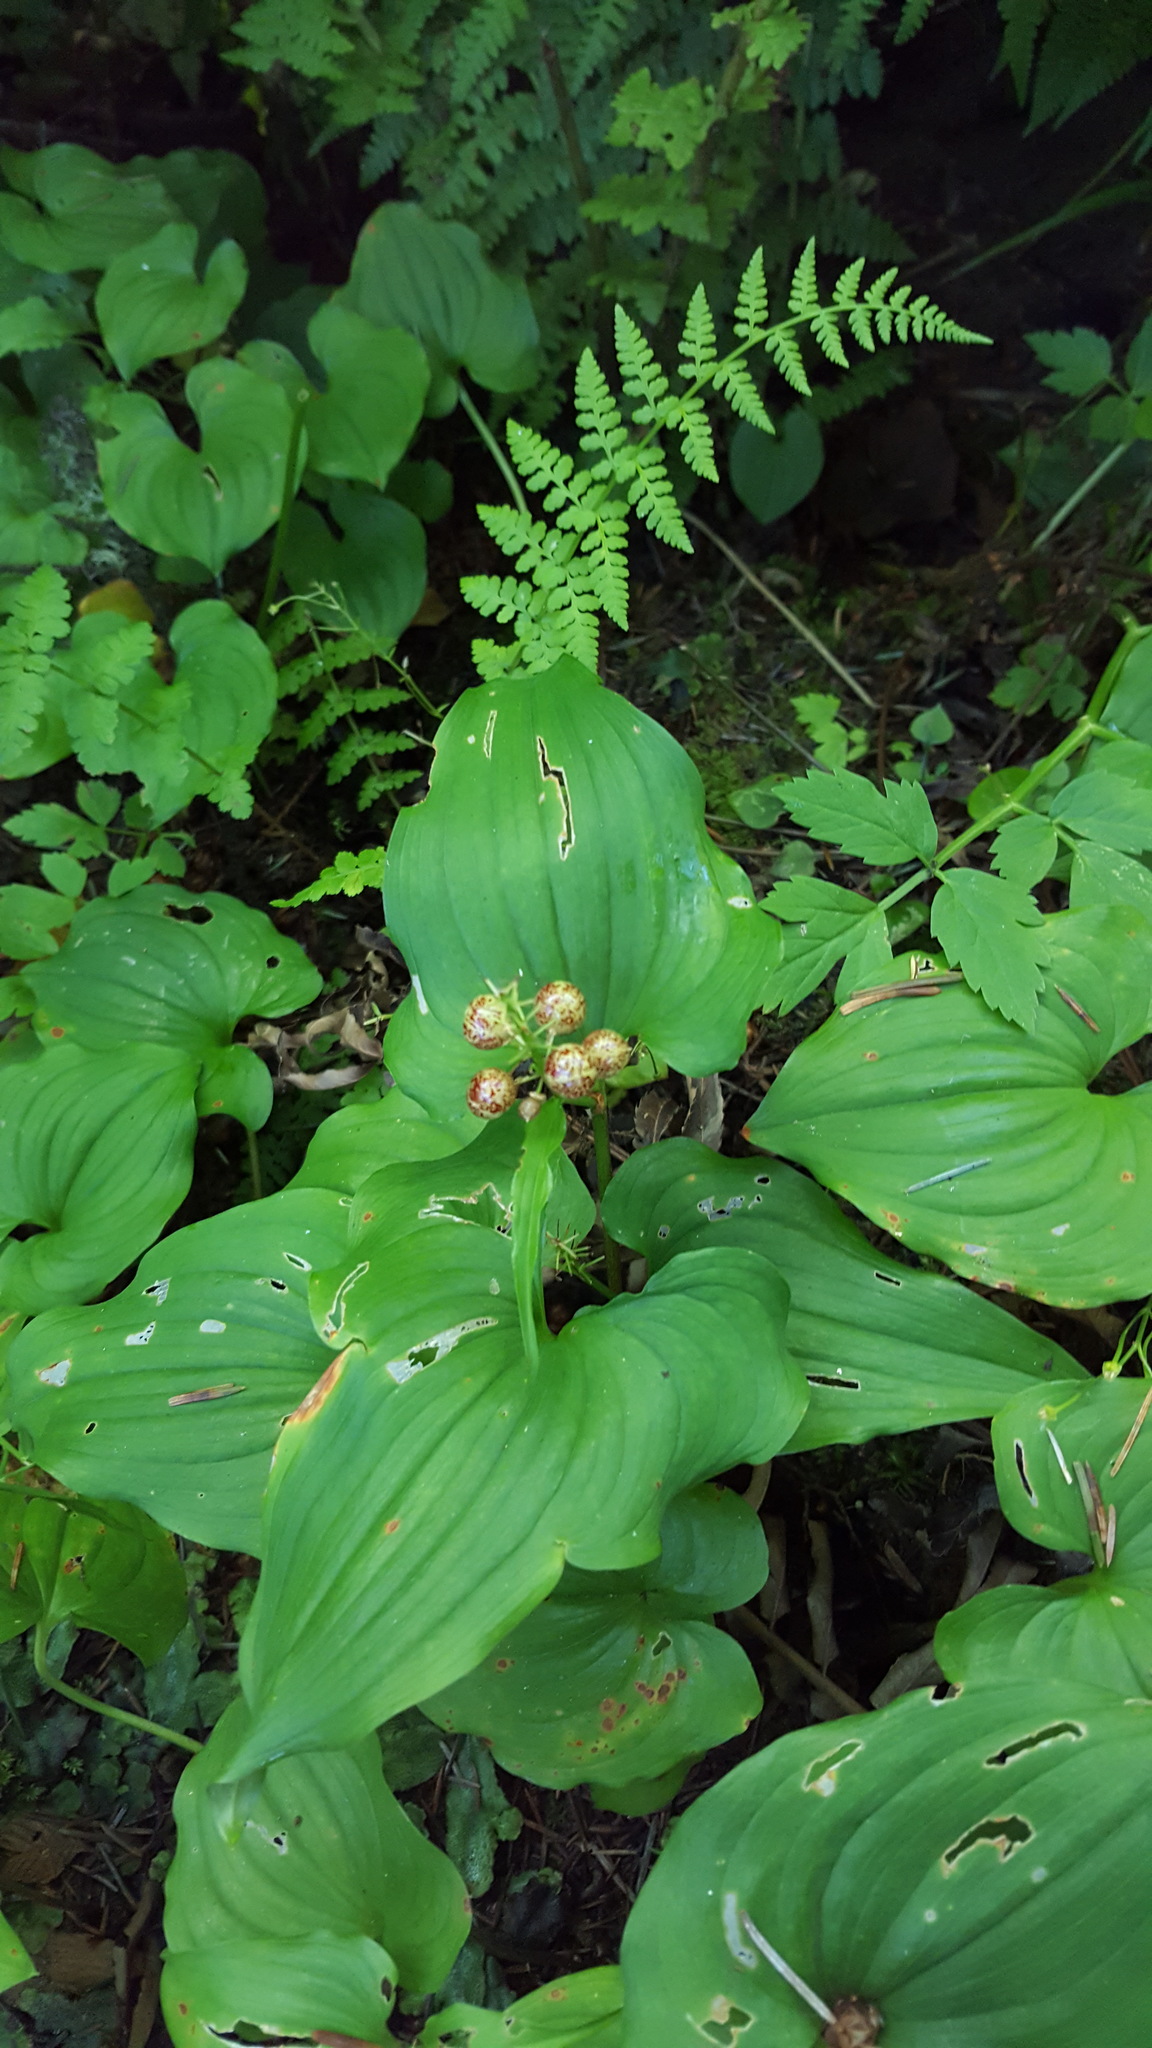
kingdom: Plantae
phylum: Tracheophyta
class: Liliopsida
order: Asparagales
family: Asparagaceae
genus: Maianthemum
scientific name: Maianthemum dilatatum
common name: False lily-of-the-valley
